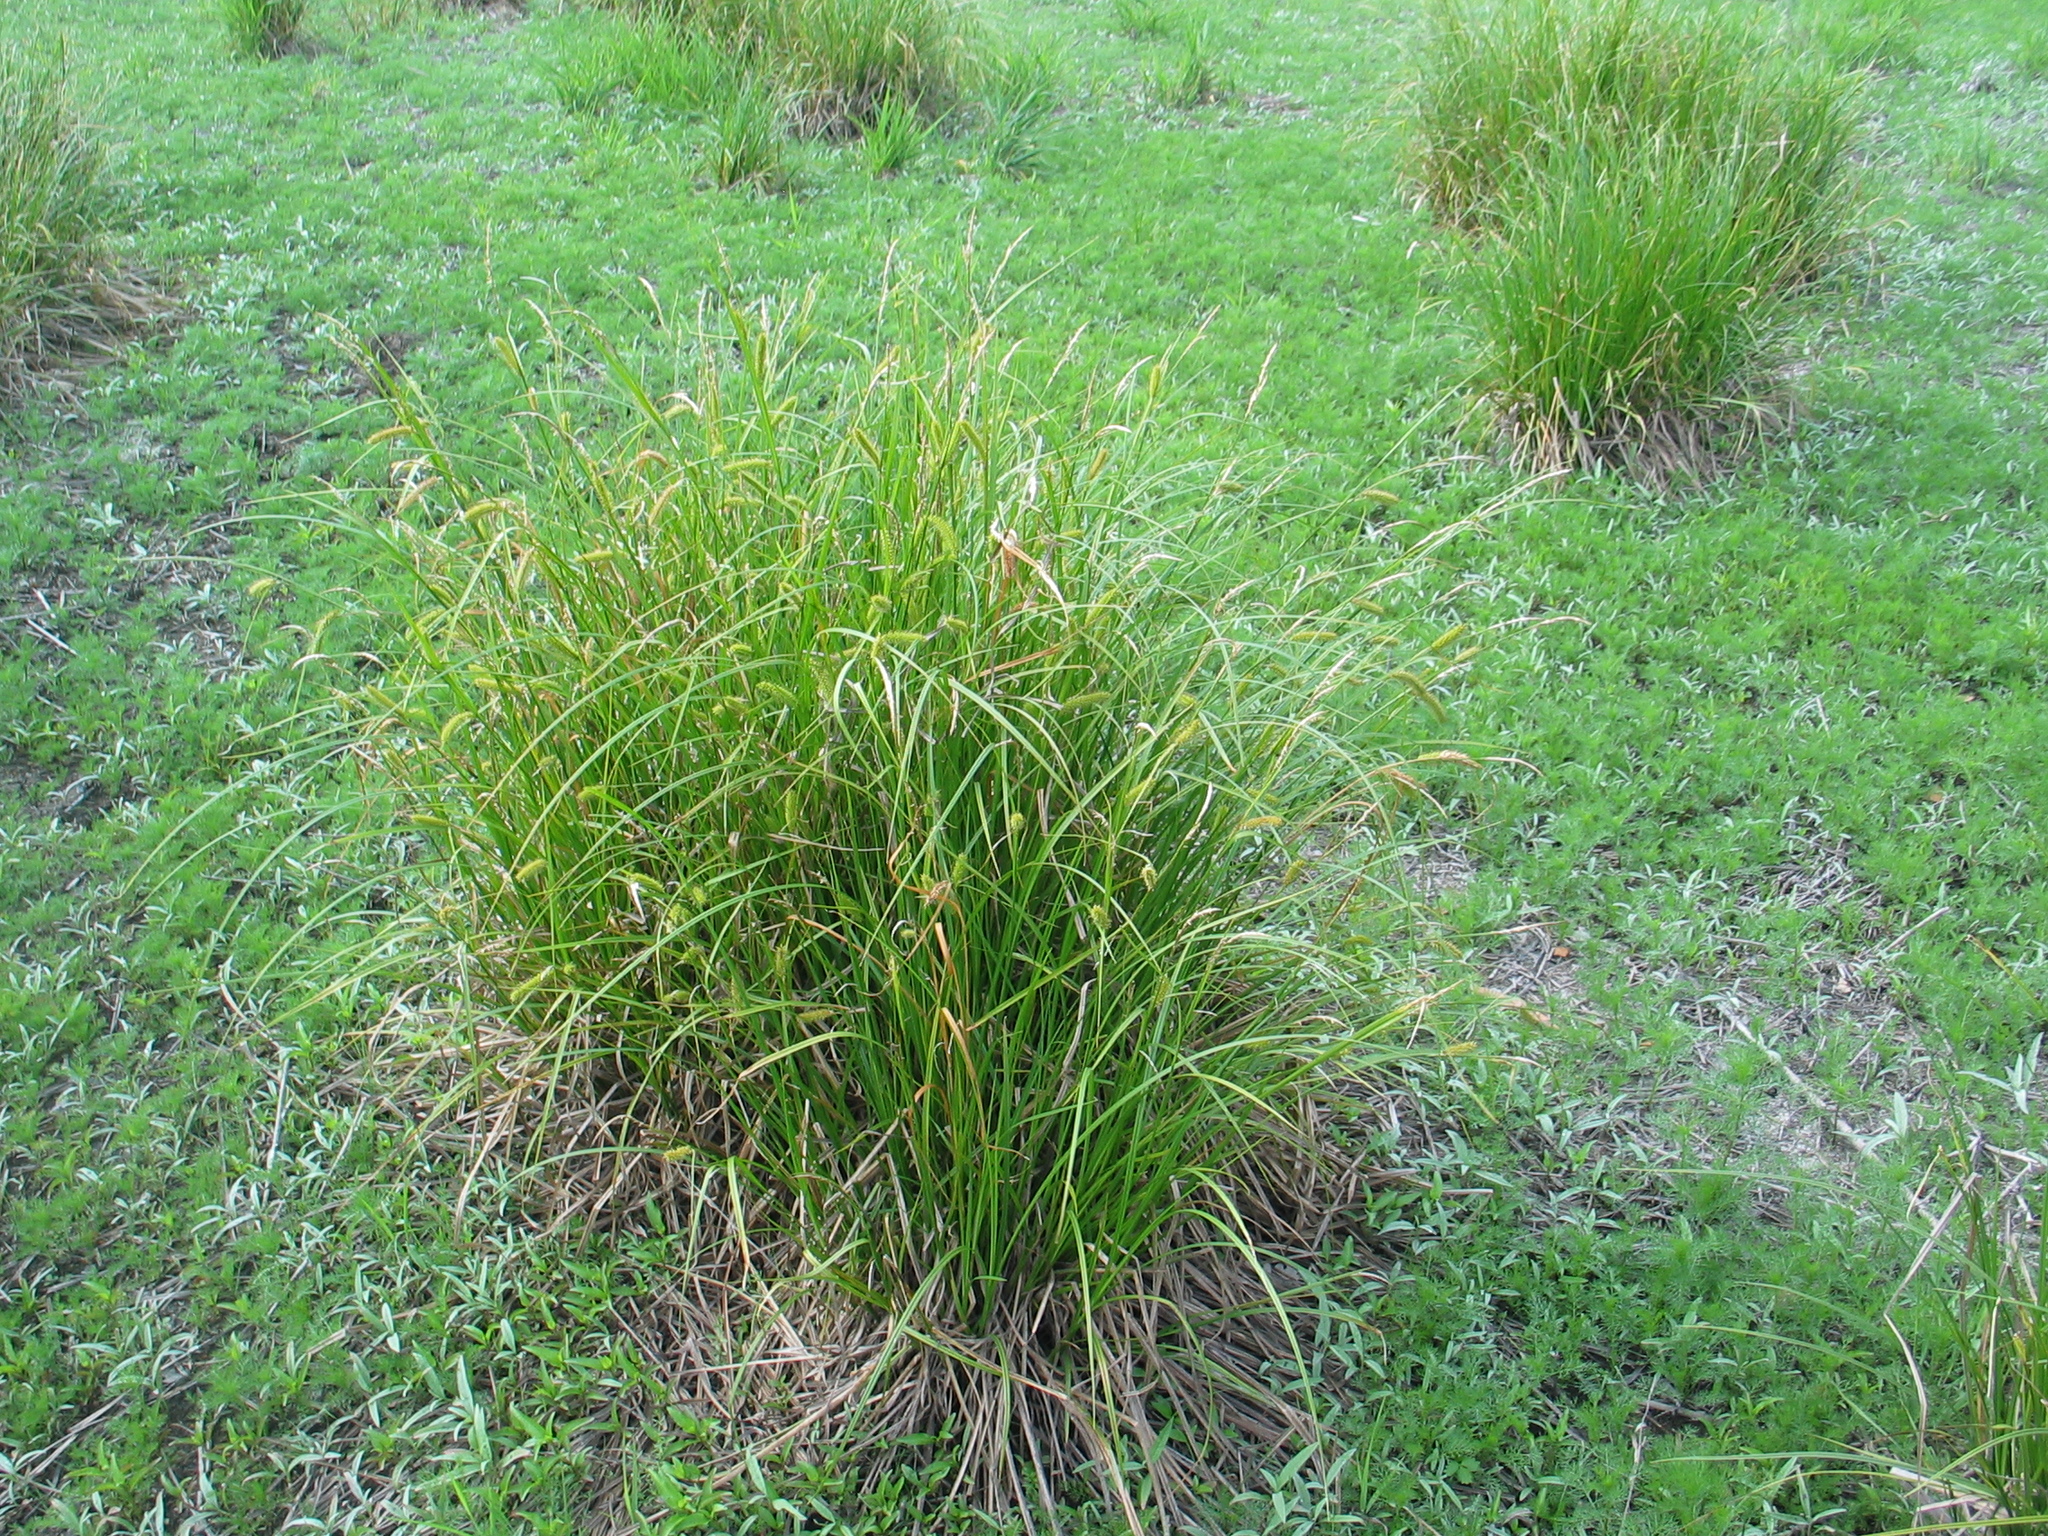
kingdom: Plantae
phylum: Tracheophyta
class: Liliopsida
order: Poales
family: Cyperaceae
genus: Carex
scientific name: Carex vesicaria
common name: Bladder-sedge
